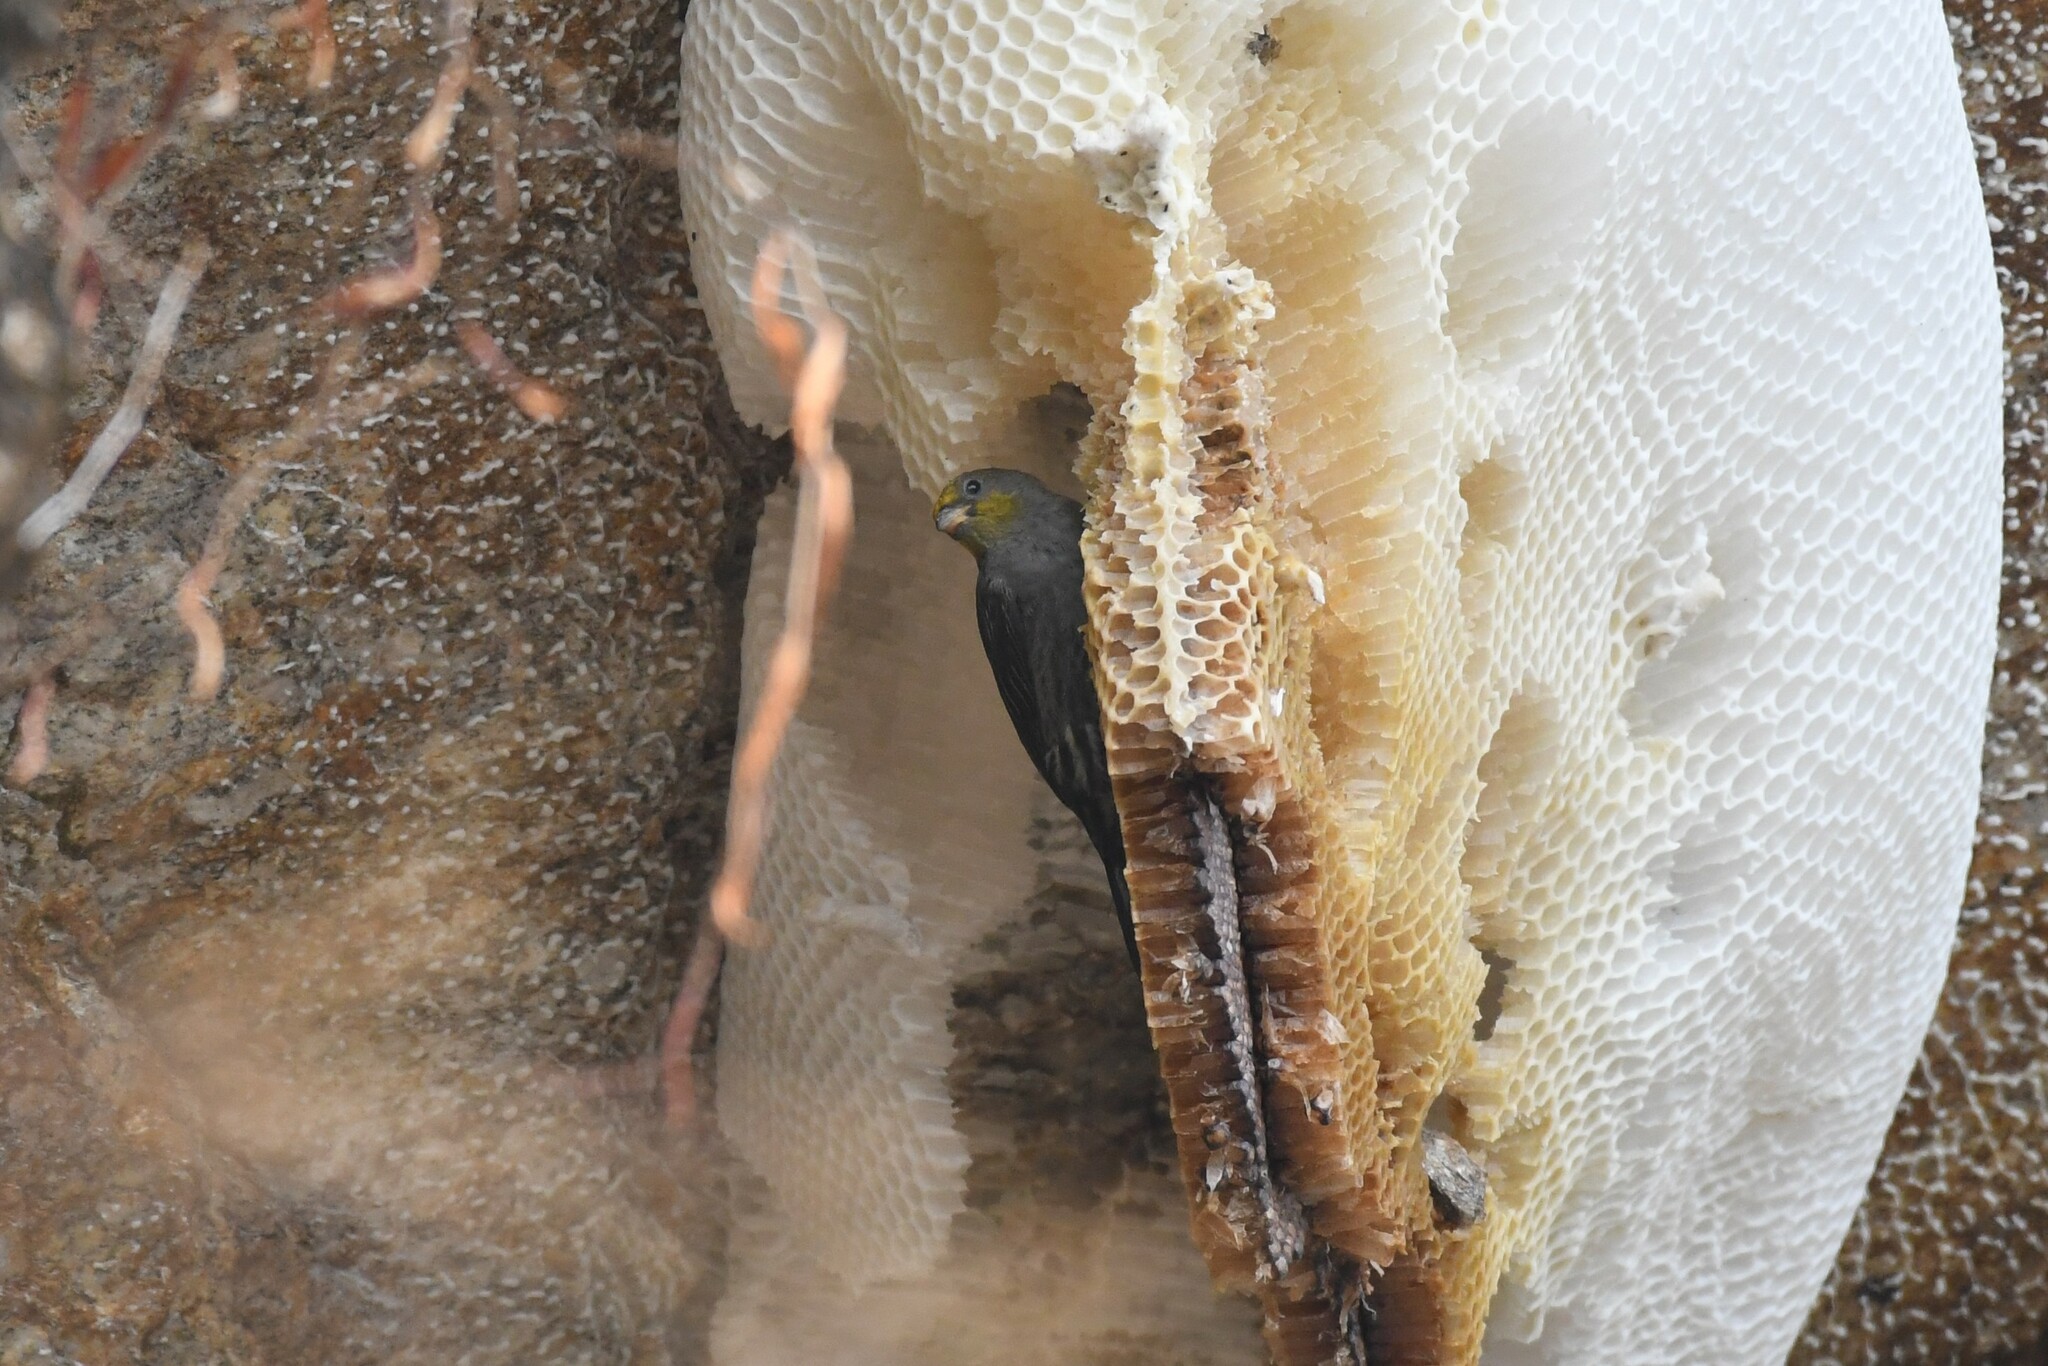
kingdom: Animalia
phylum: Chordata
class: Aves
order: Piciformes
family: Indicatoridae
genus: Indicator
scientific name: Indicator xanthonotus
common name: Yellow-rumped honeyguide
